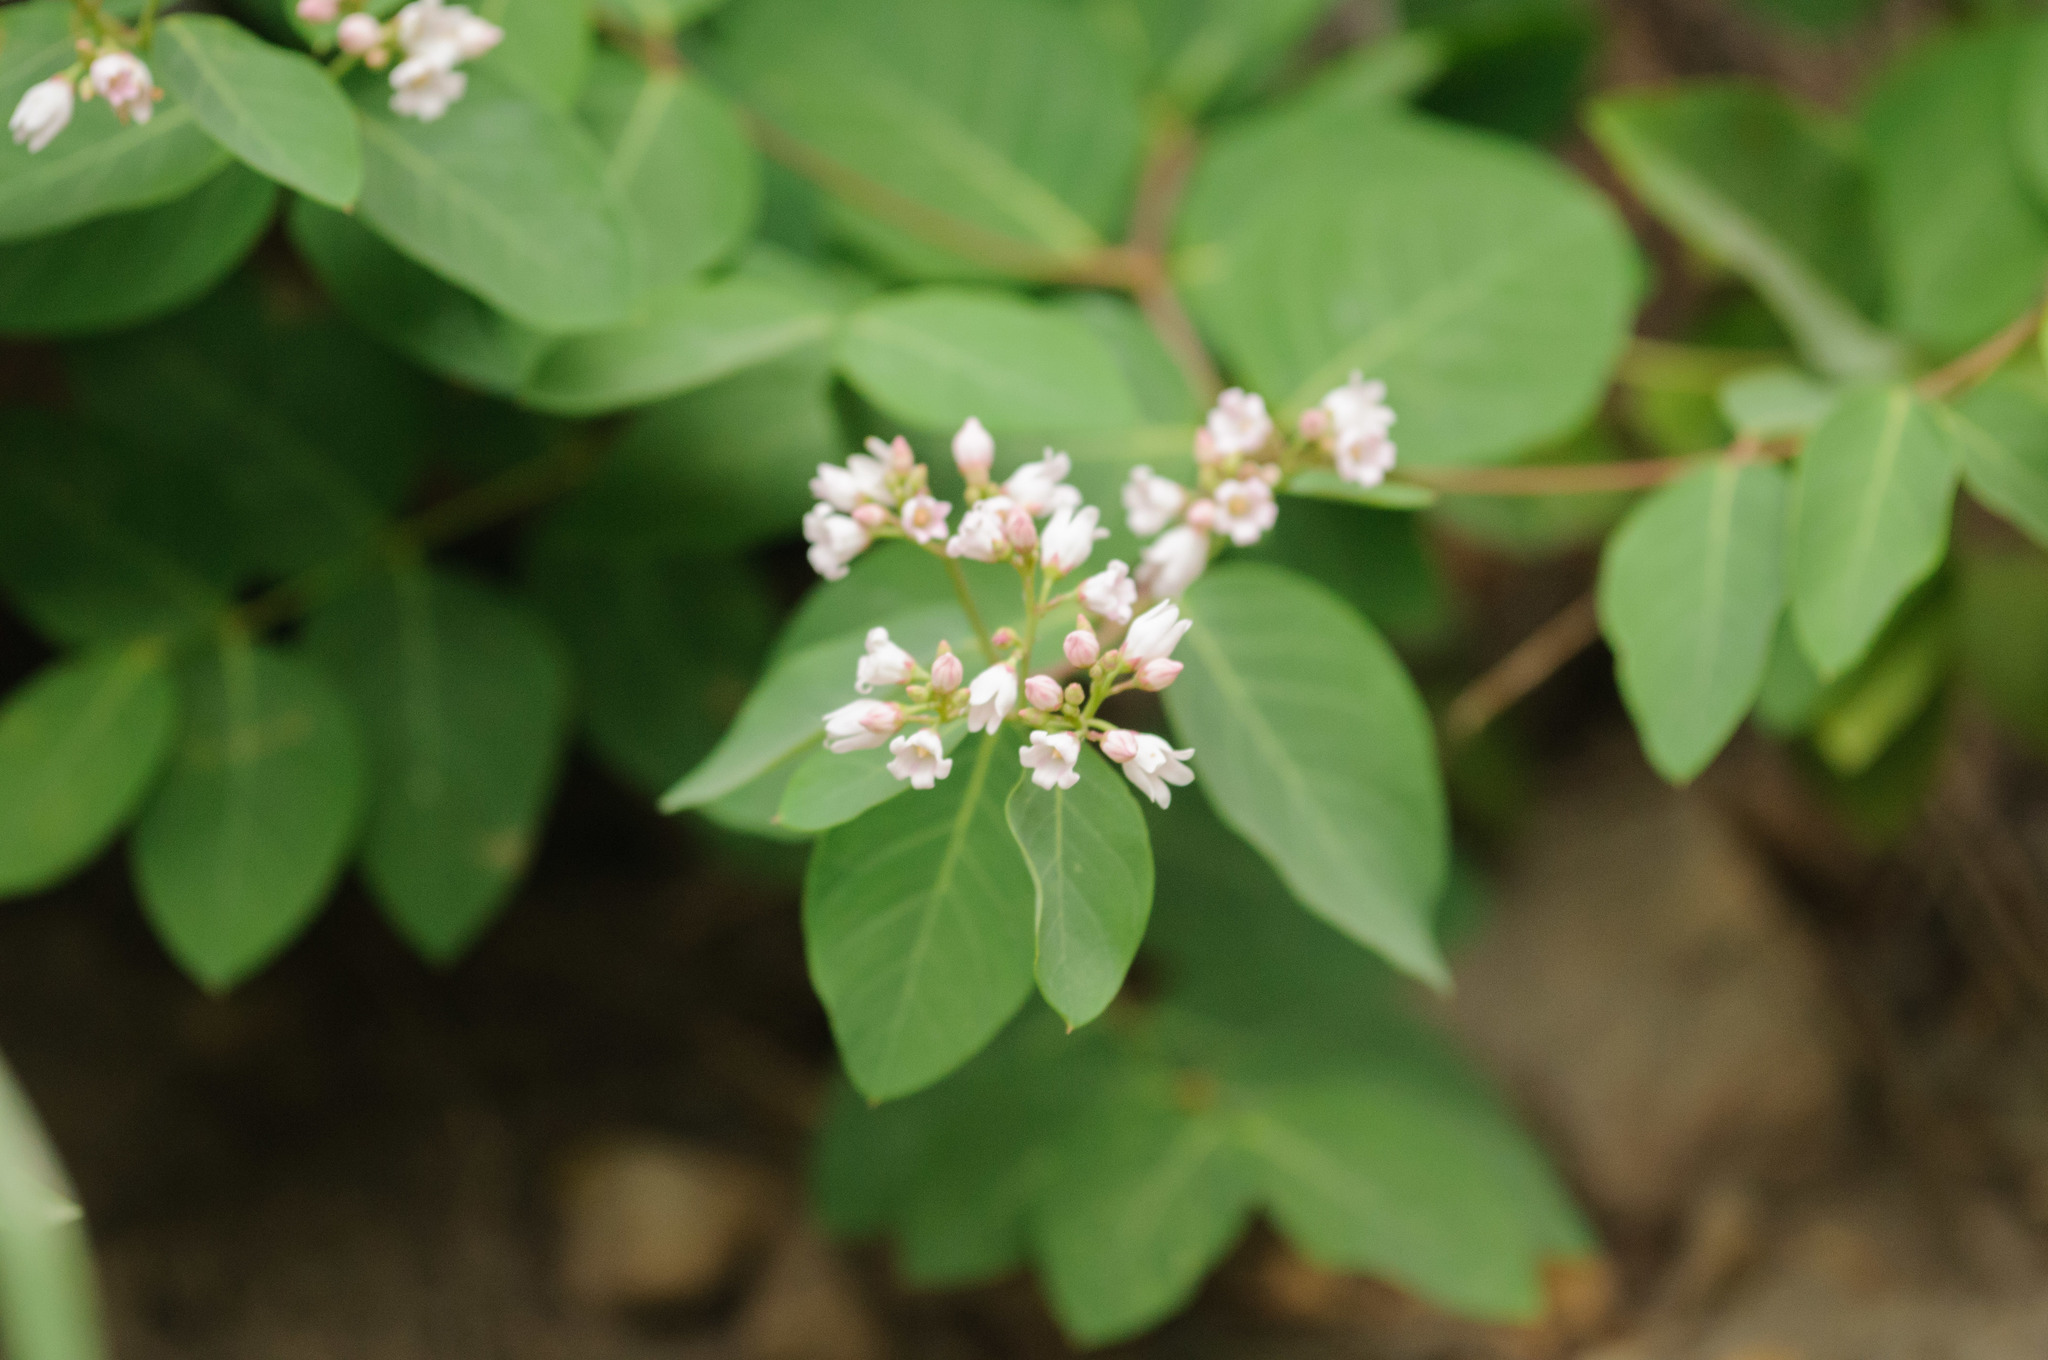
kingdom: Plantae
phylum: Tracheophyta
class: Magnoliopsida
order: Gentianales
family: Apocynaceae
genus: Apocynum
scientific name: Apocynum androsaemifolium
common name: Spreading dogbane
